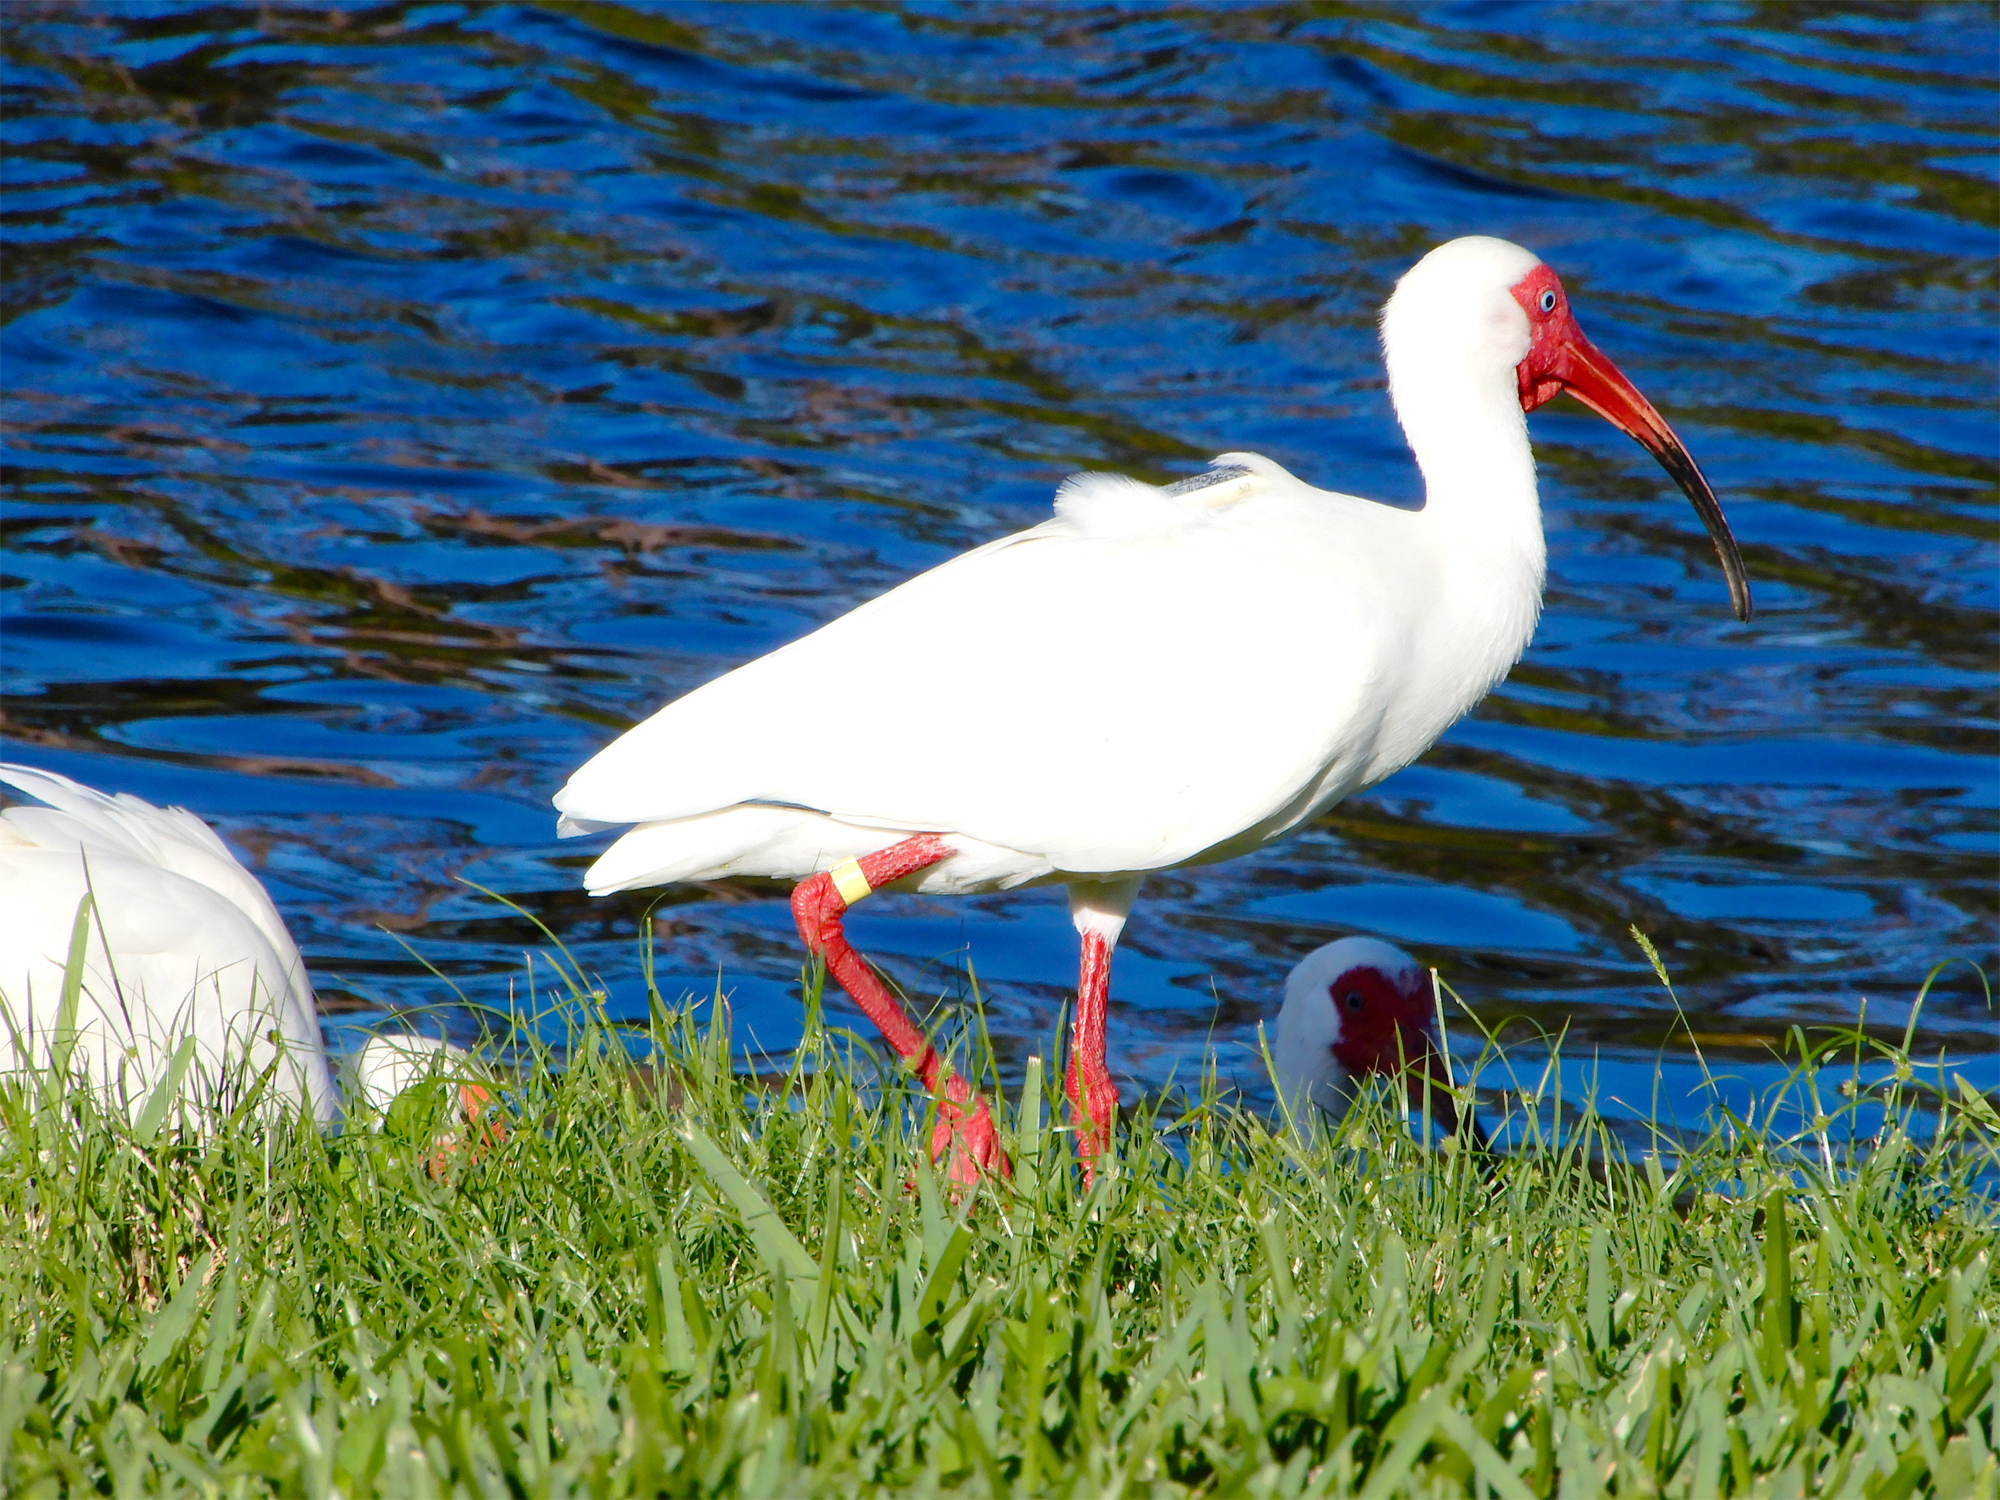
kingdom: Animalia
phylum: Chordata
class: Aves
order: Pelecaniformes
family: Threskiornithidae
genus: Eudocimus
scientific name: Eudocimus albus
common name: White ibis
